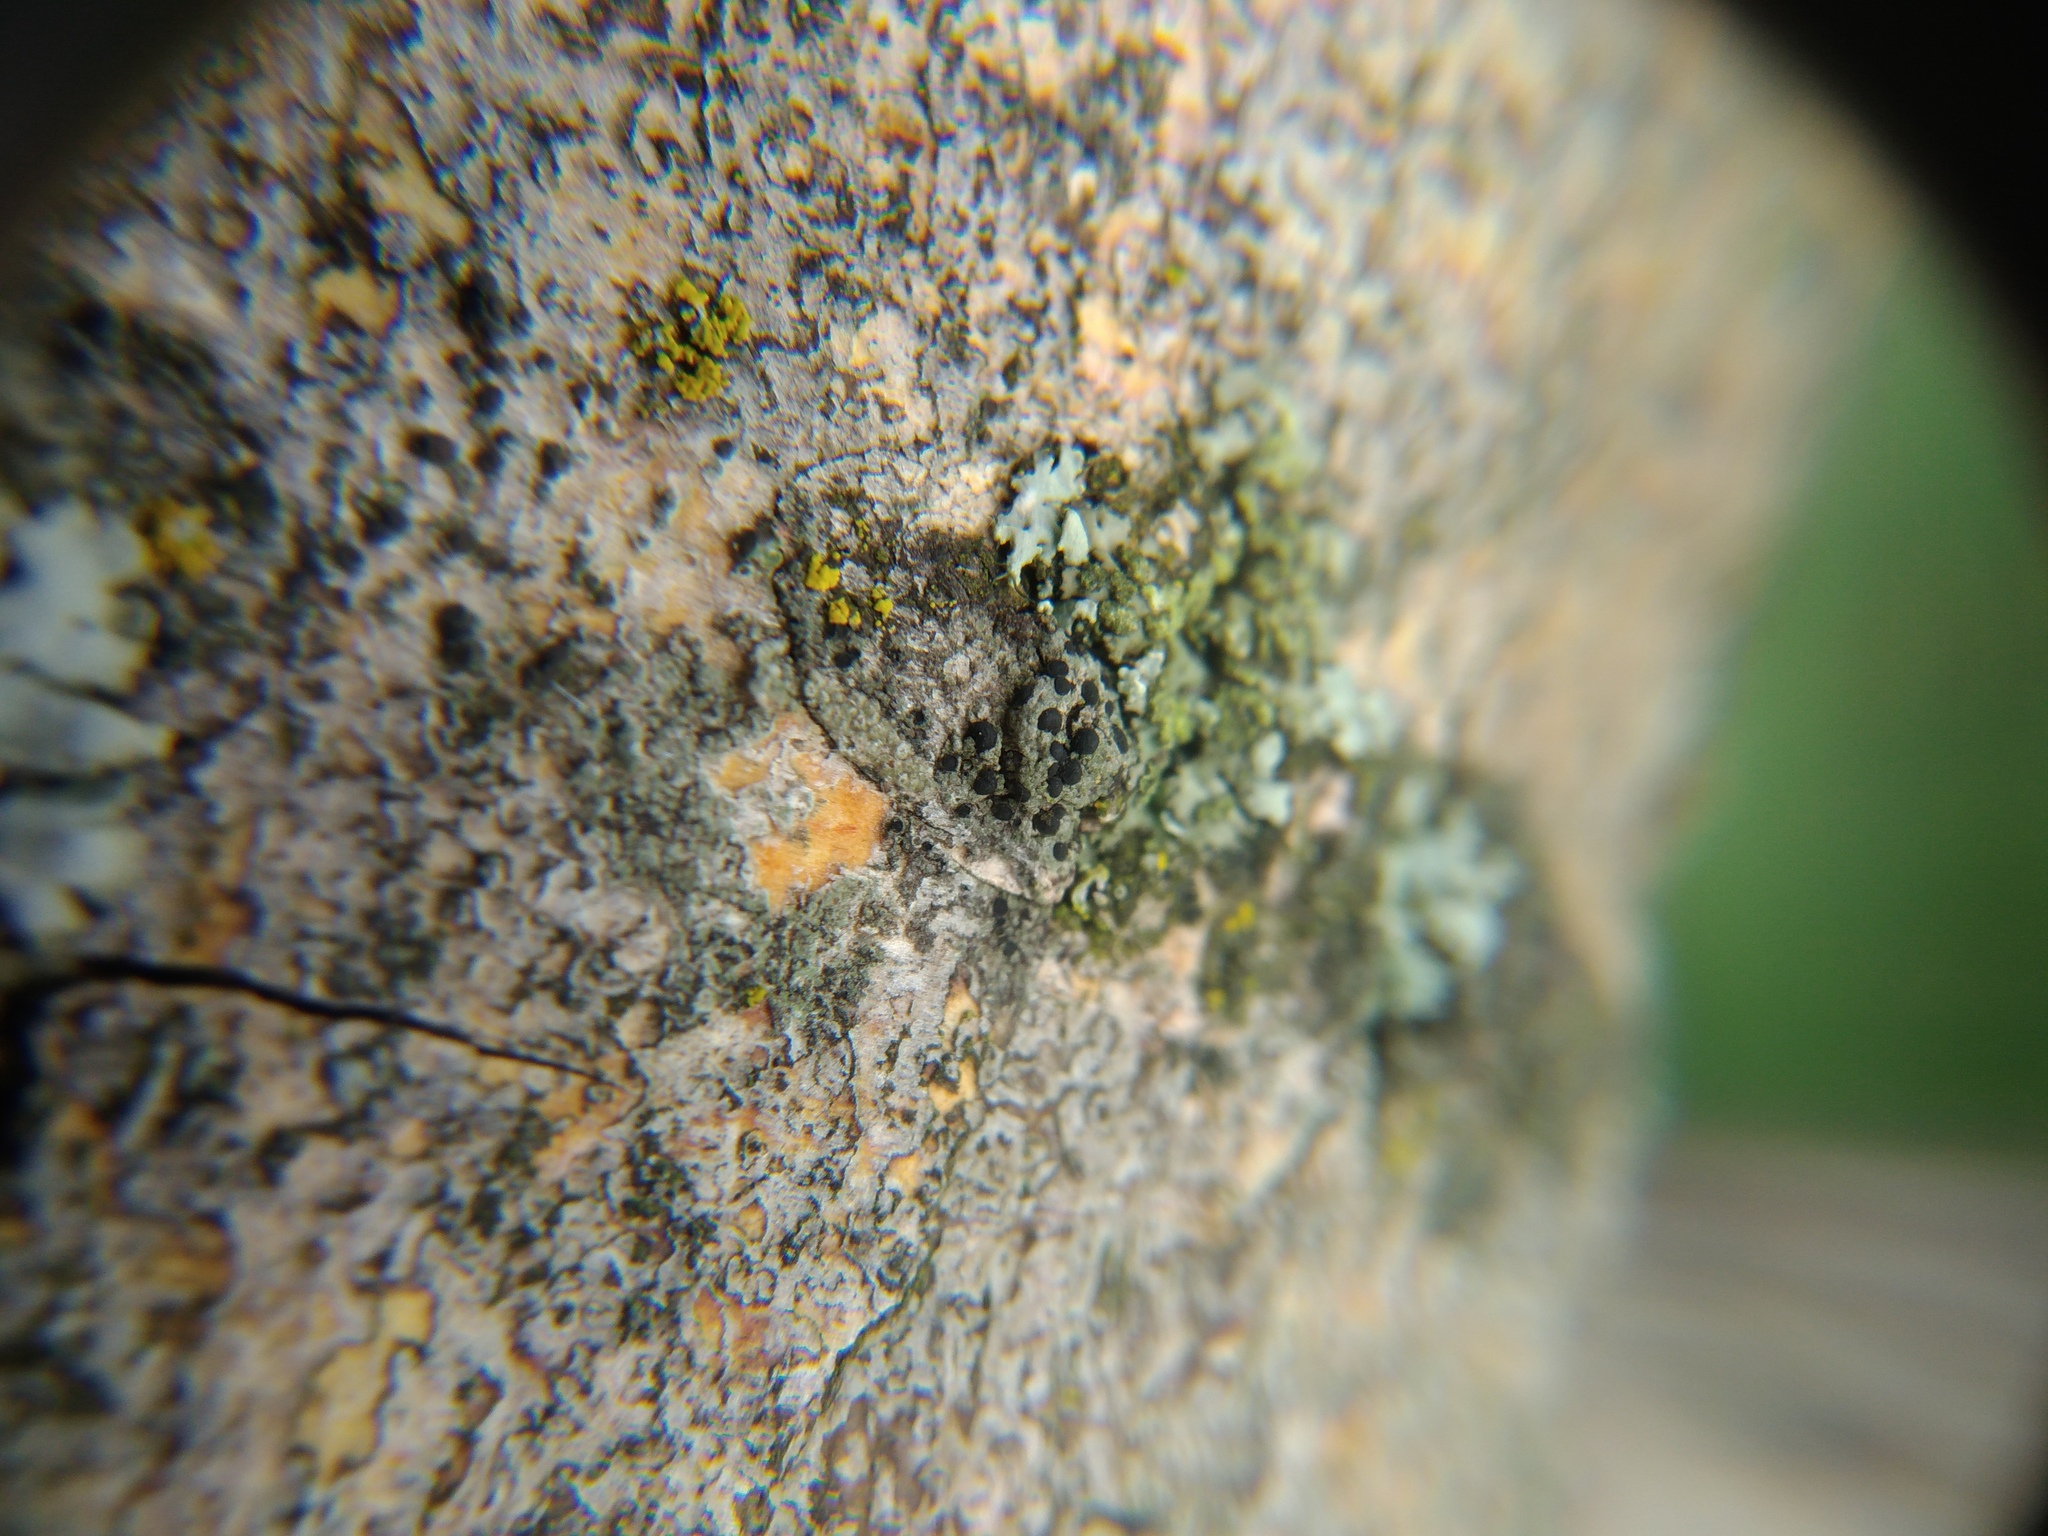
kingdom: Fungi
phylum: Ascomycota
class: Lecanoromycetes
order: Caliciales
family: Caliciaceae
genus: Amandinea
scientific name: Amandinea punctata
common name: Tiny button lichen
